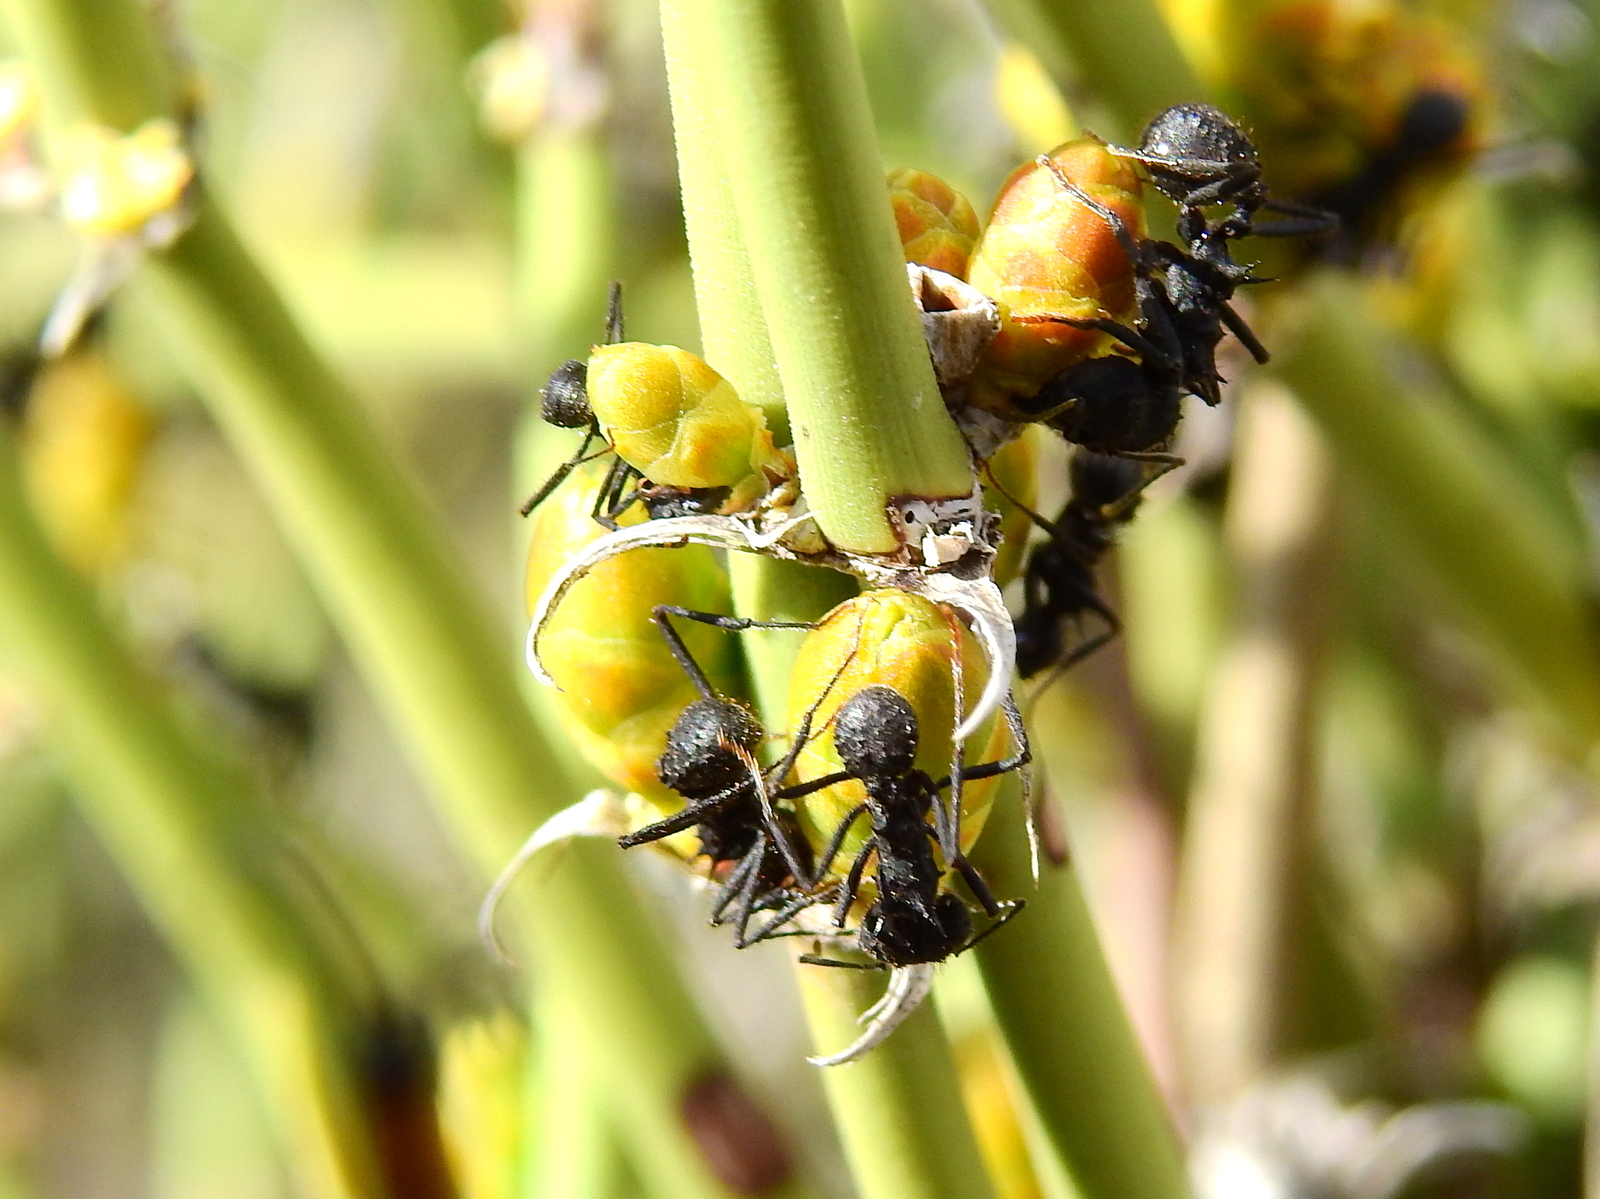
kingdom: Animalia
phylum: Arthropoda
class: Insecta
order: Hymenoptera
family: Formicidae
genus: Acromyrmex
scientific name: Acromyrmex lobicornis
